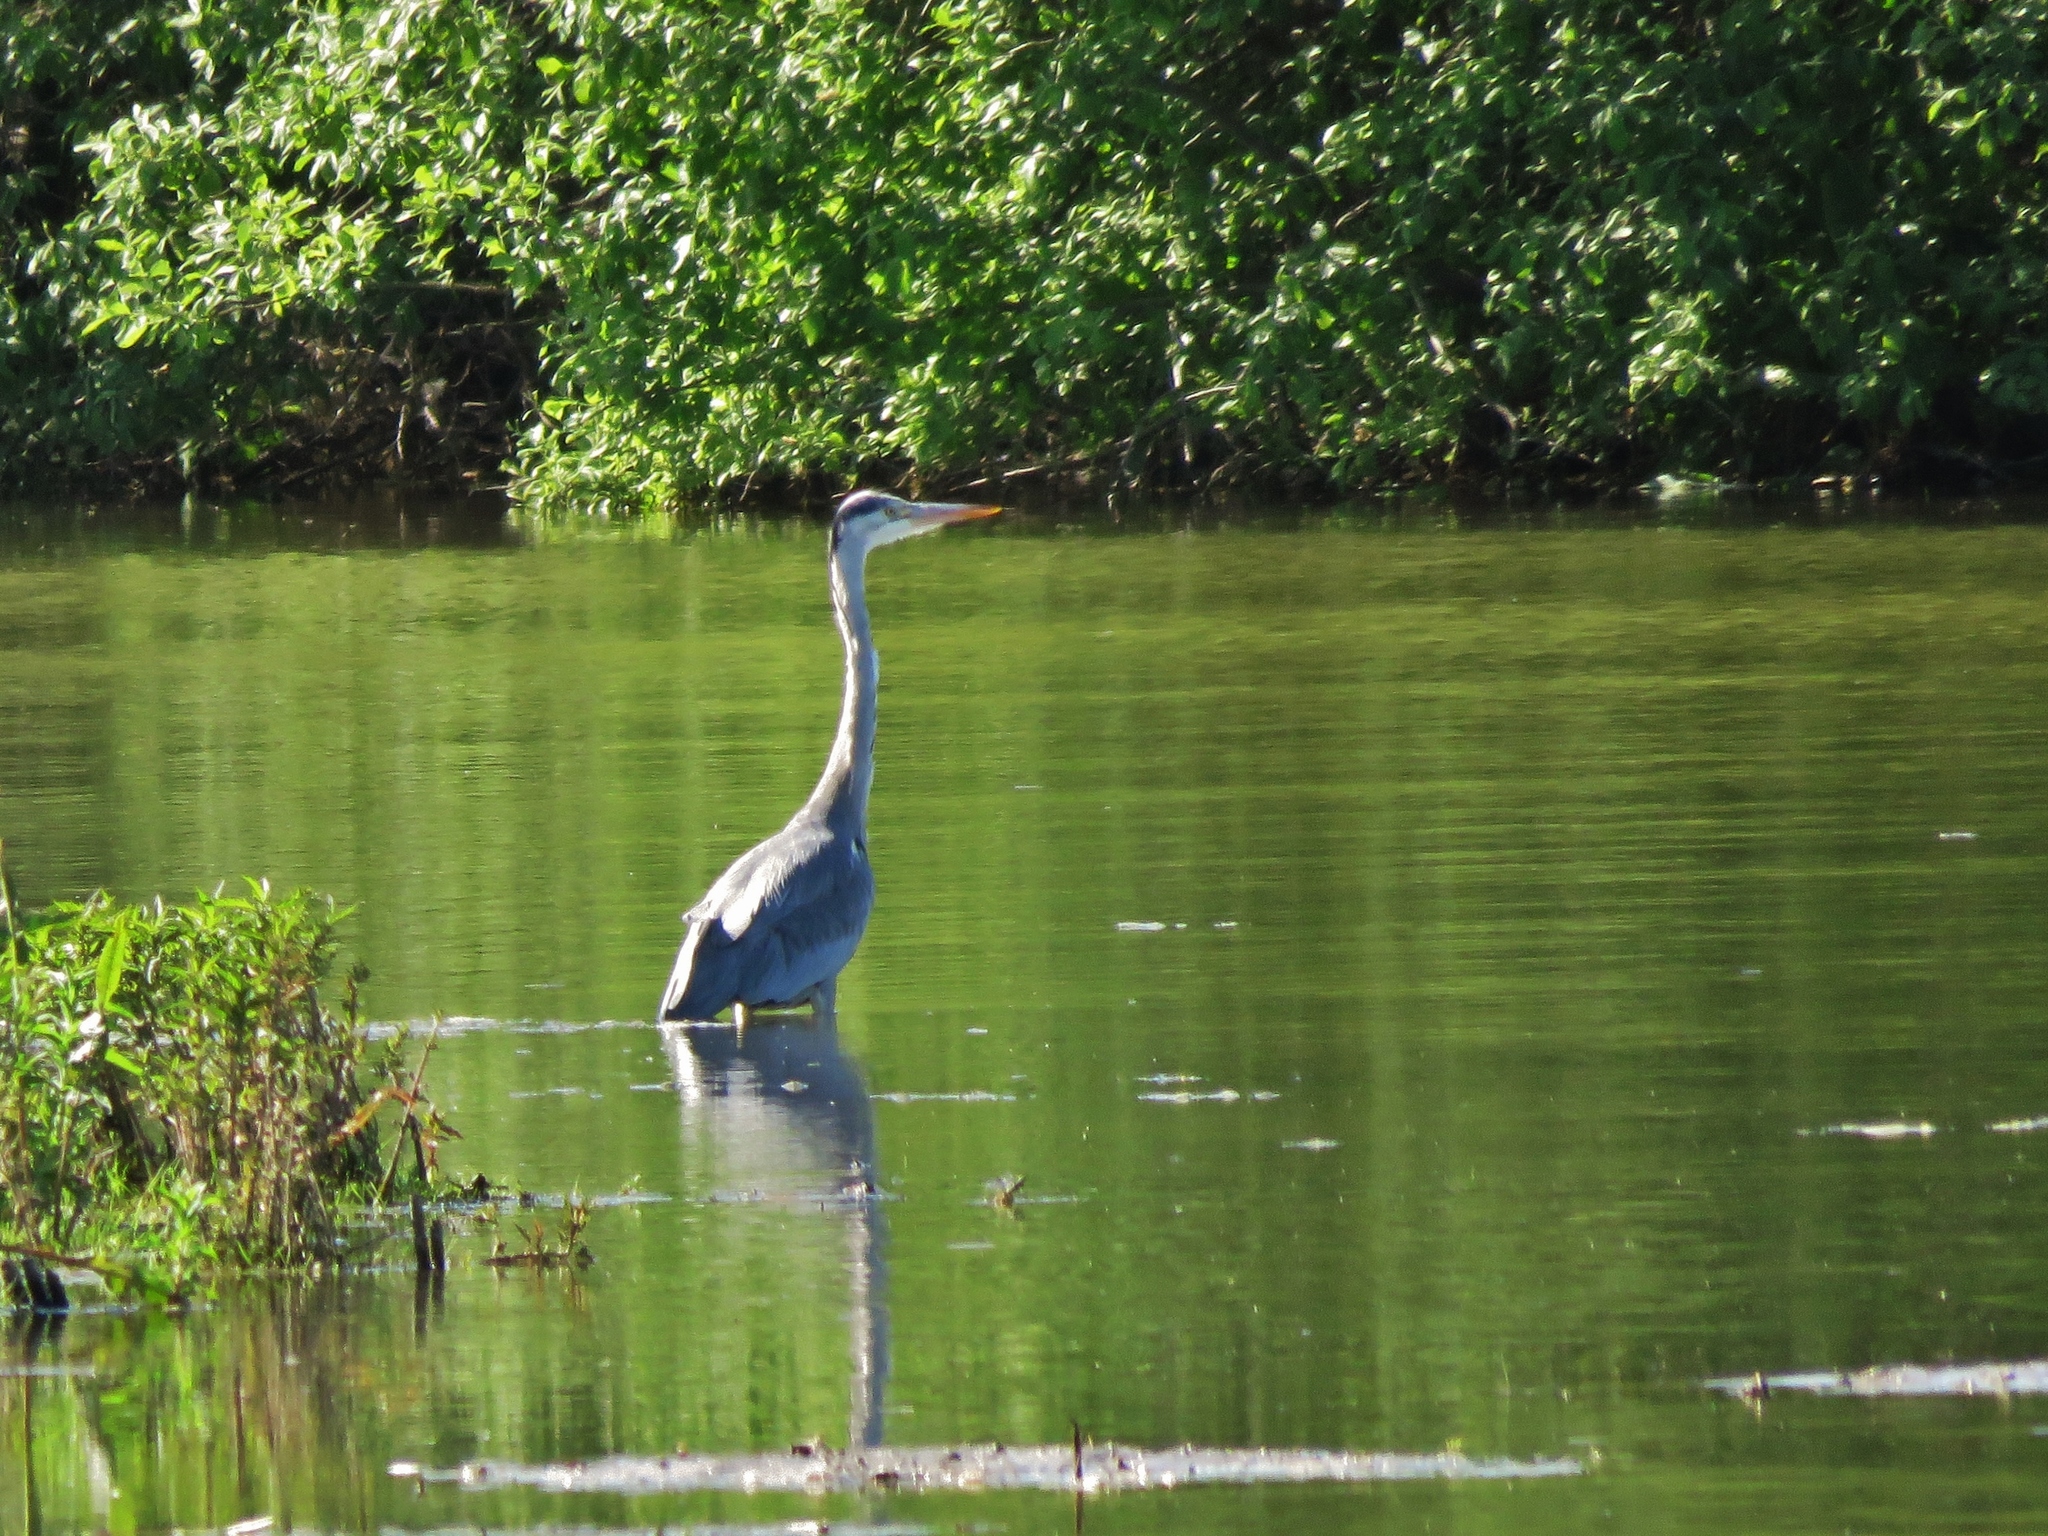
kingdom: Animalia
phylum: Chordata
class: Aves
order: Pelecaniformes
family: Ardeidae
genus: Ardea
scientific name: Ardea cinerea
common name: Grey heron
